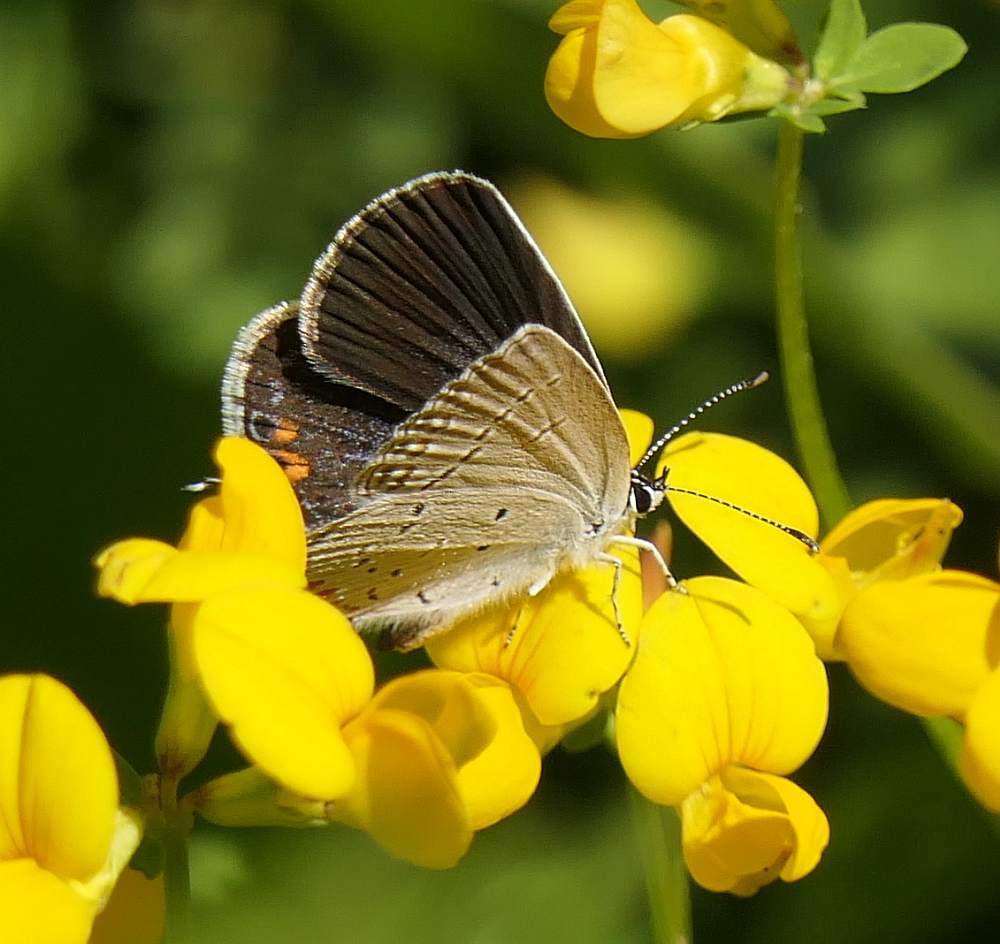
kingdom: Animalia
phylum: Arthropoda
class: Insecta
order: Lepidoptera
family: Lycaenidae
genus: Elkalyce
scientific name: Elkalyce comyntas
